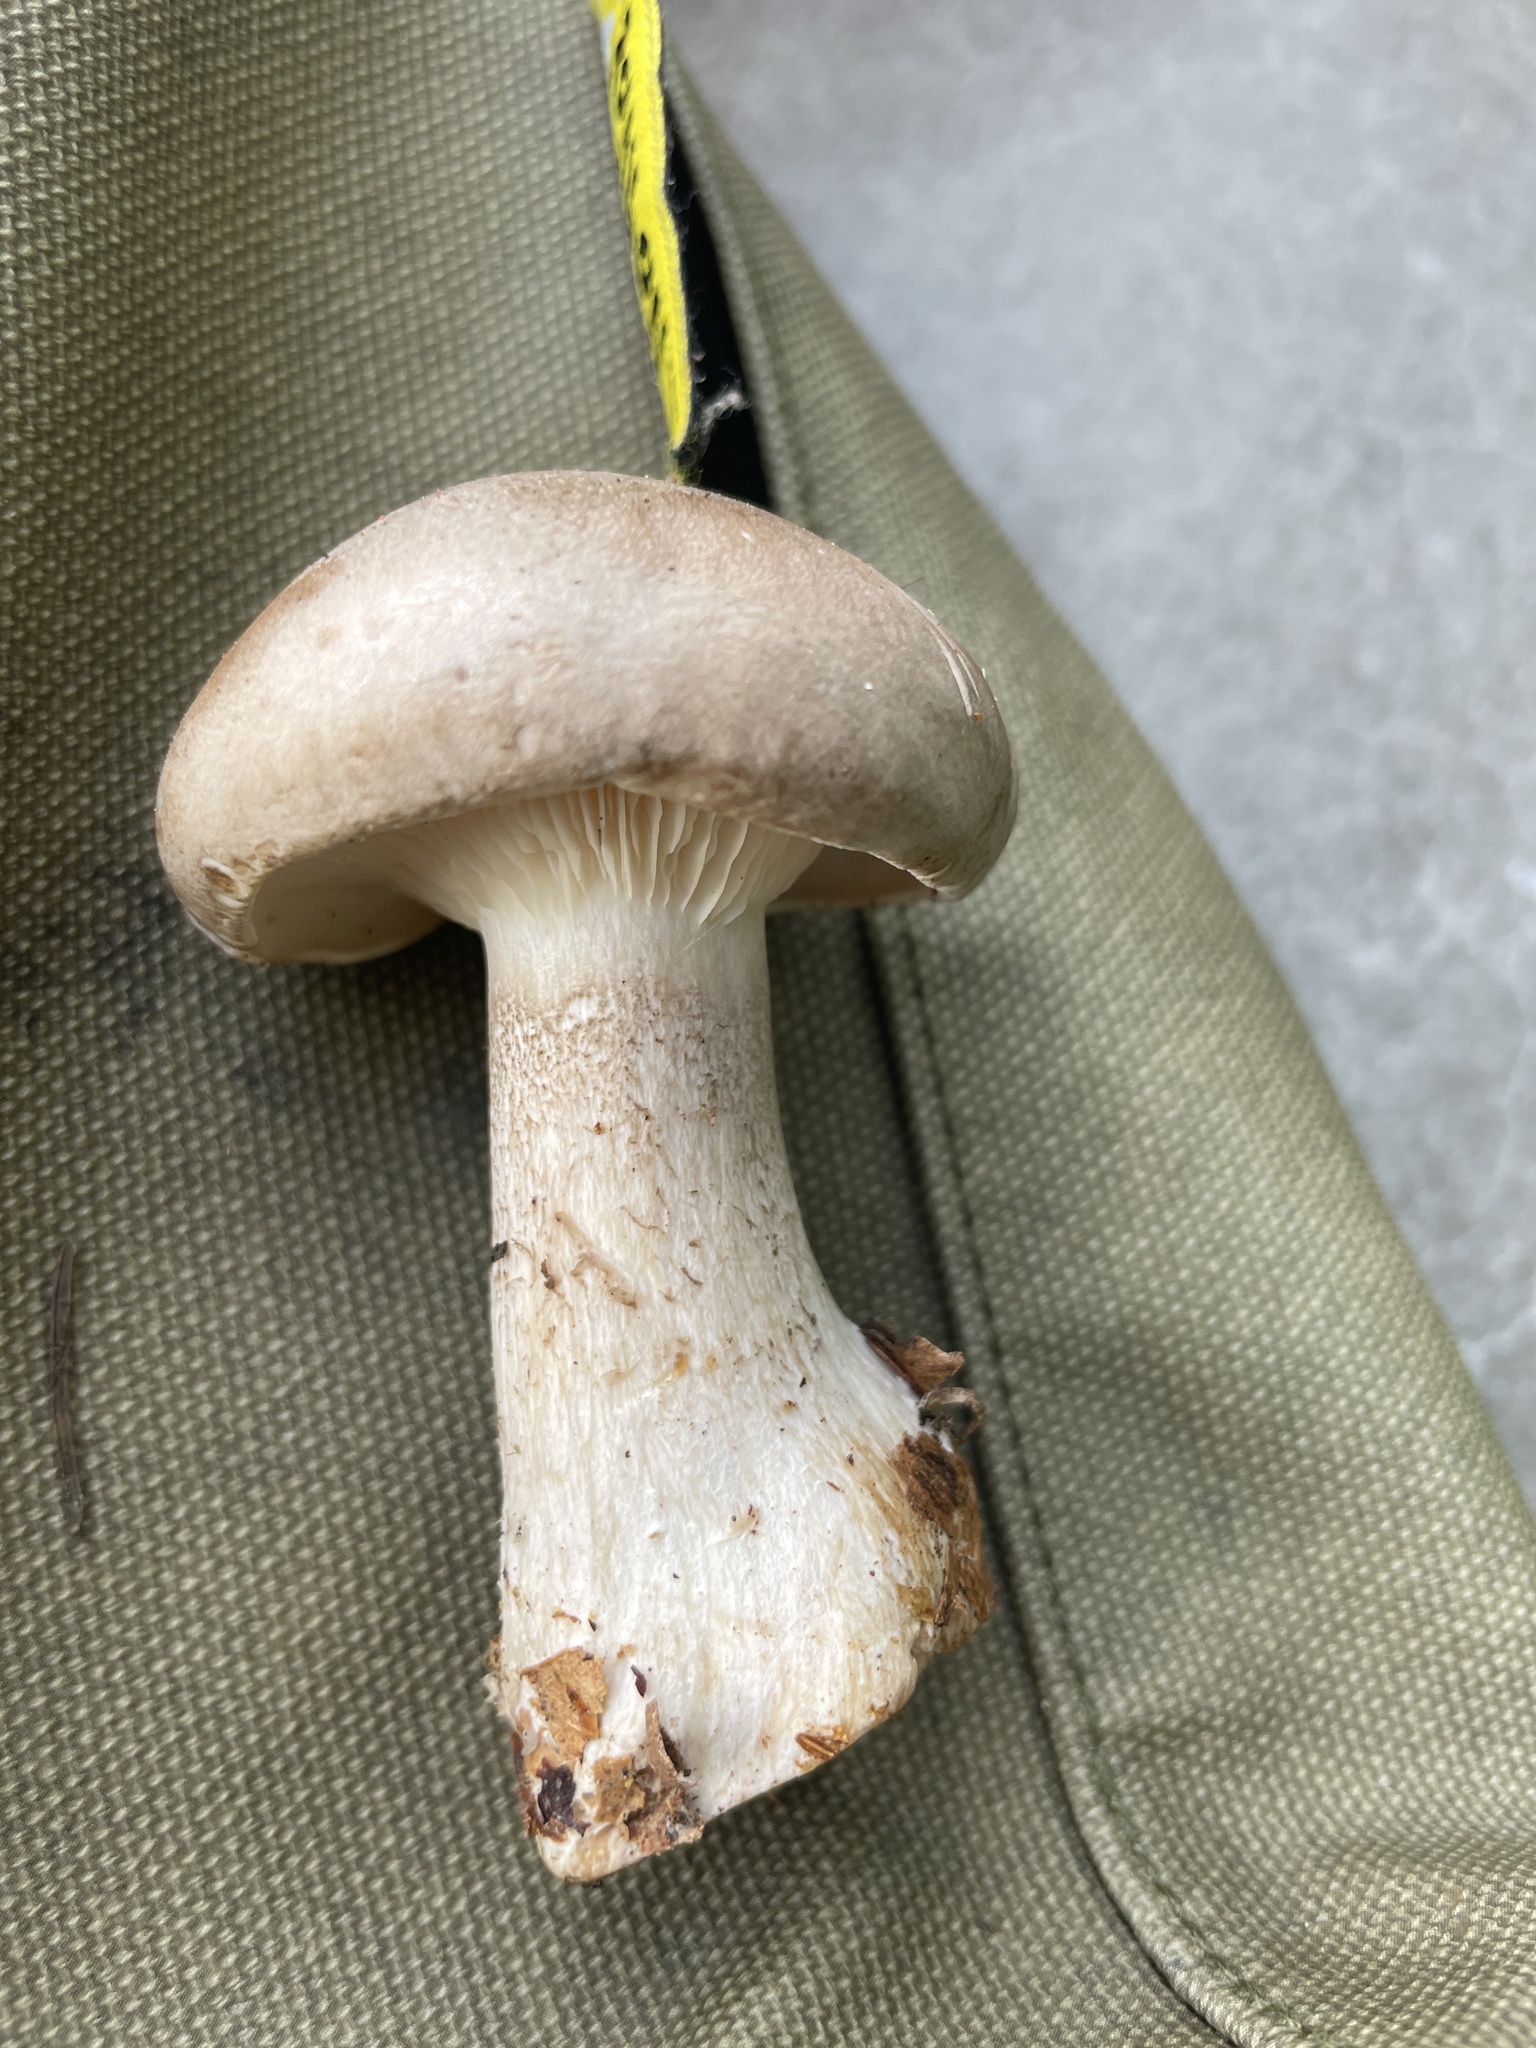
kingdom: Fungi
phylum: Basidiomycota
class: Agaricomycetes
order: Agaricales
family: Tricholomataceae
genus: Clitocybe
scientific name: Clitocybe nebularis
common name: Clouded agaric
